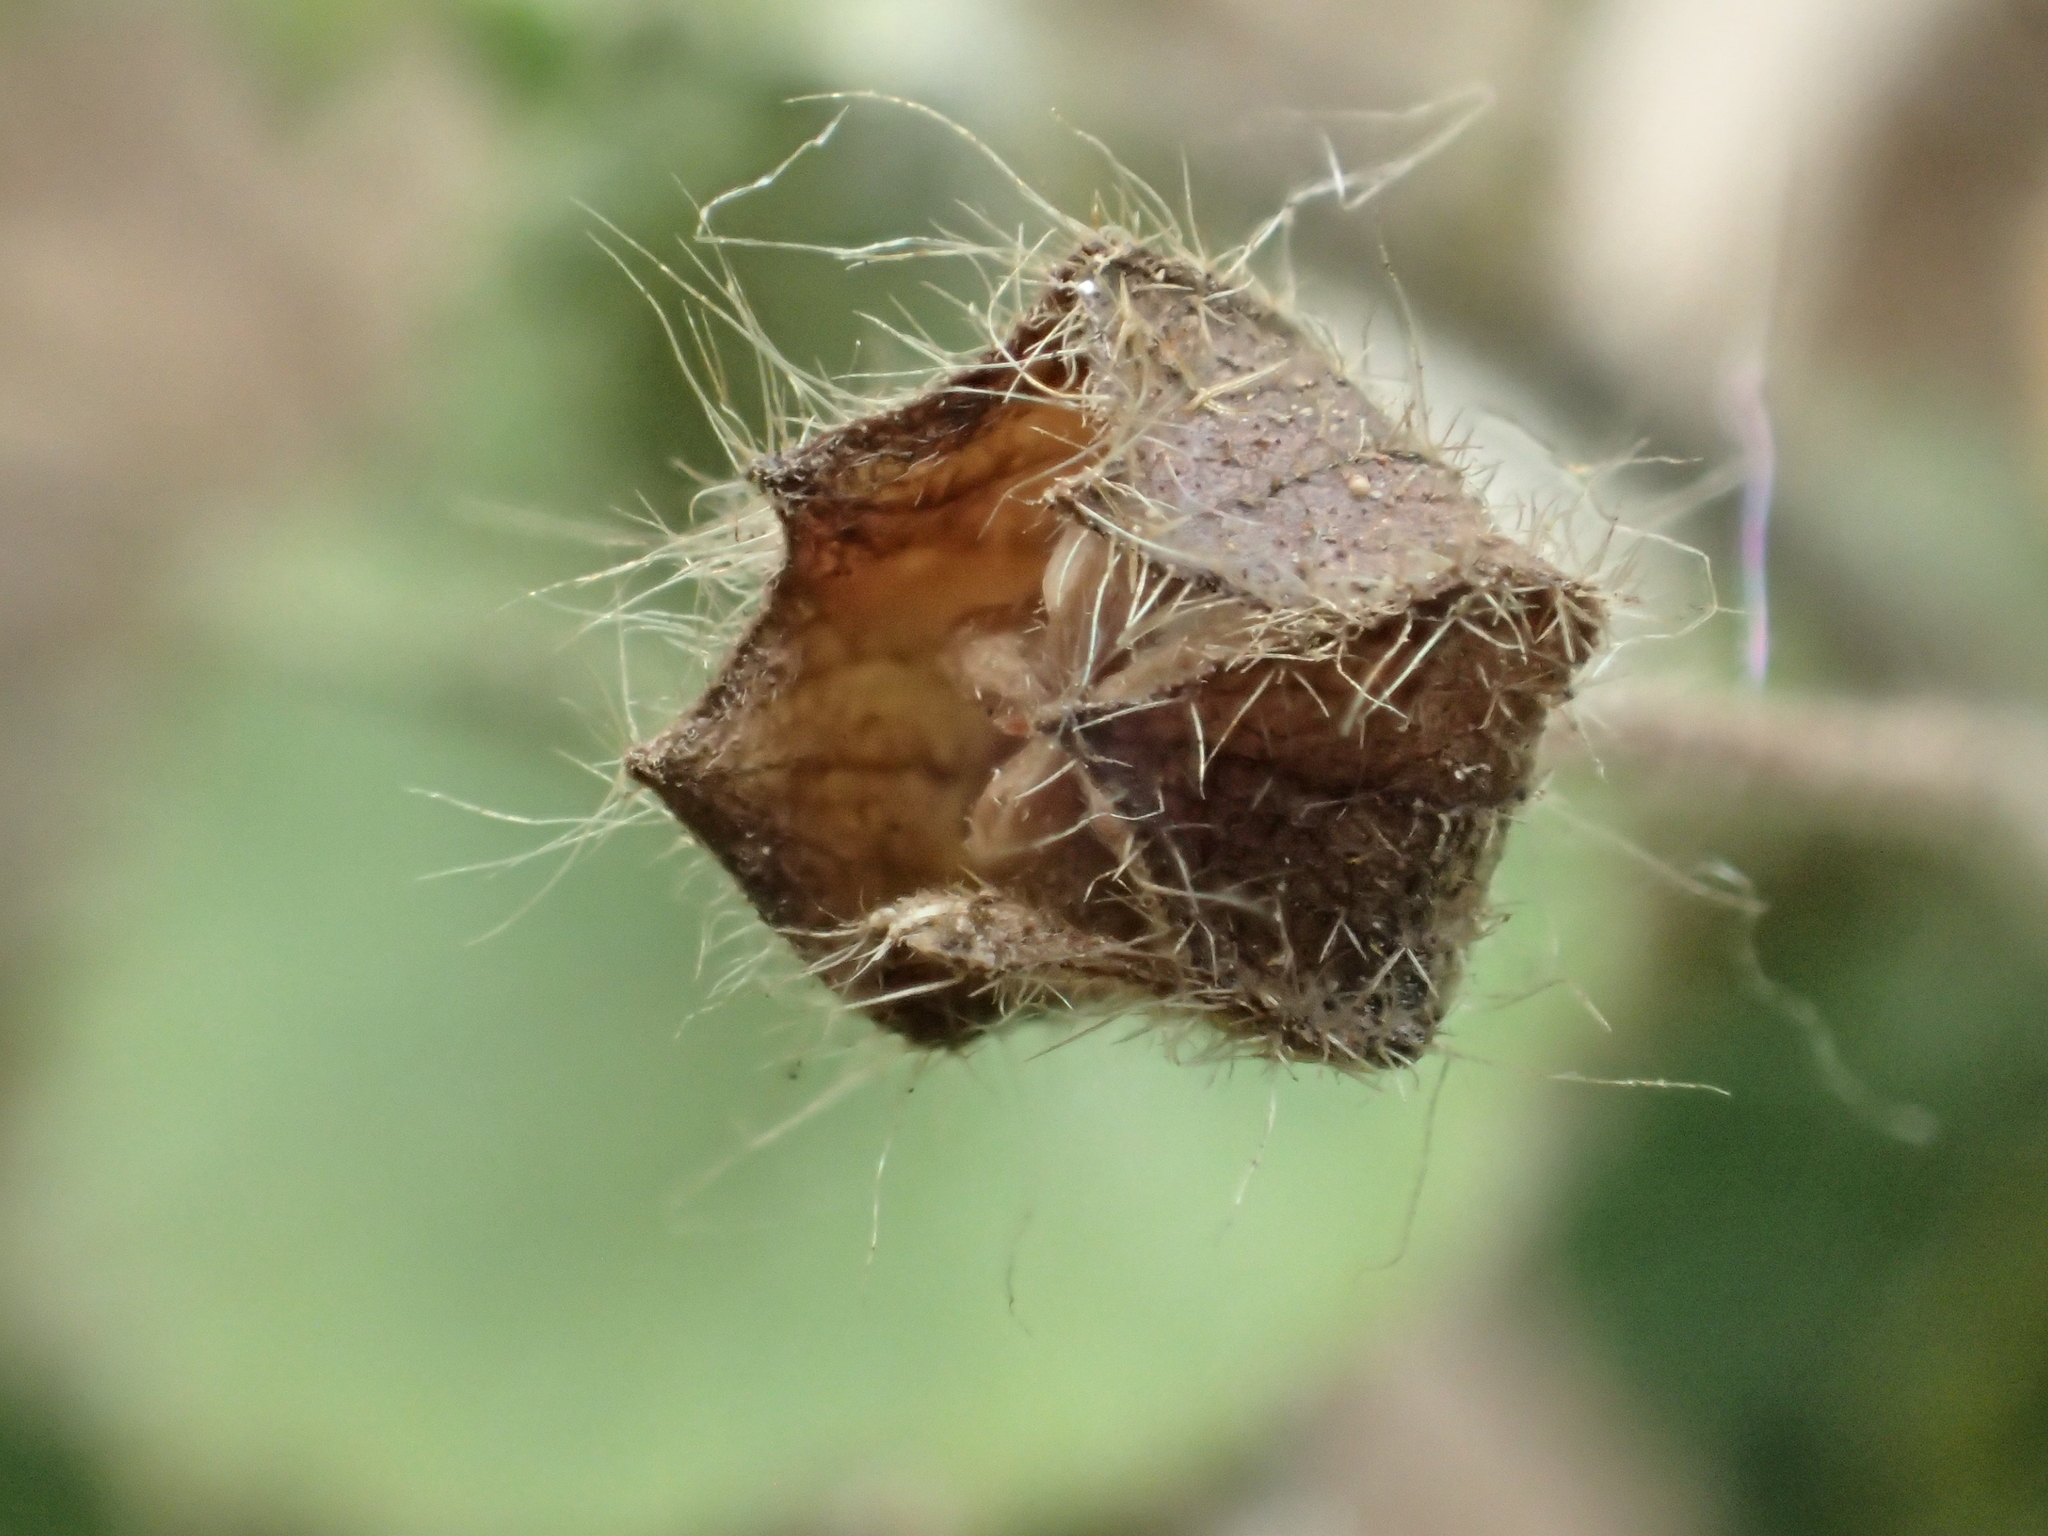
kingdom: Plantae
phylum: Tracheophyta
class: Magnoliopsida
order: Malvales
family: Malvaceae
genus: Sida
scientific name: Sida cordata
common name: Long-stalk sida
